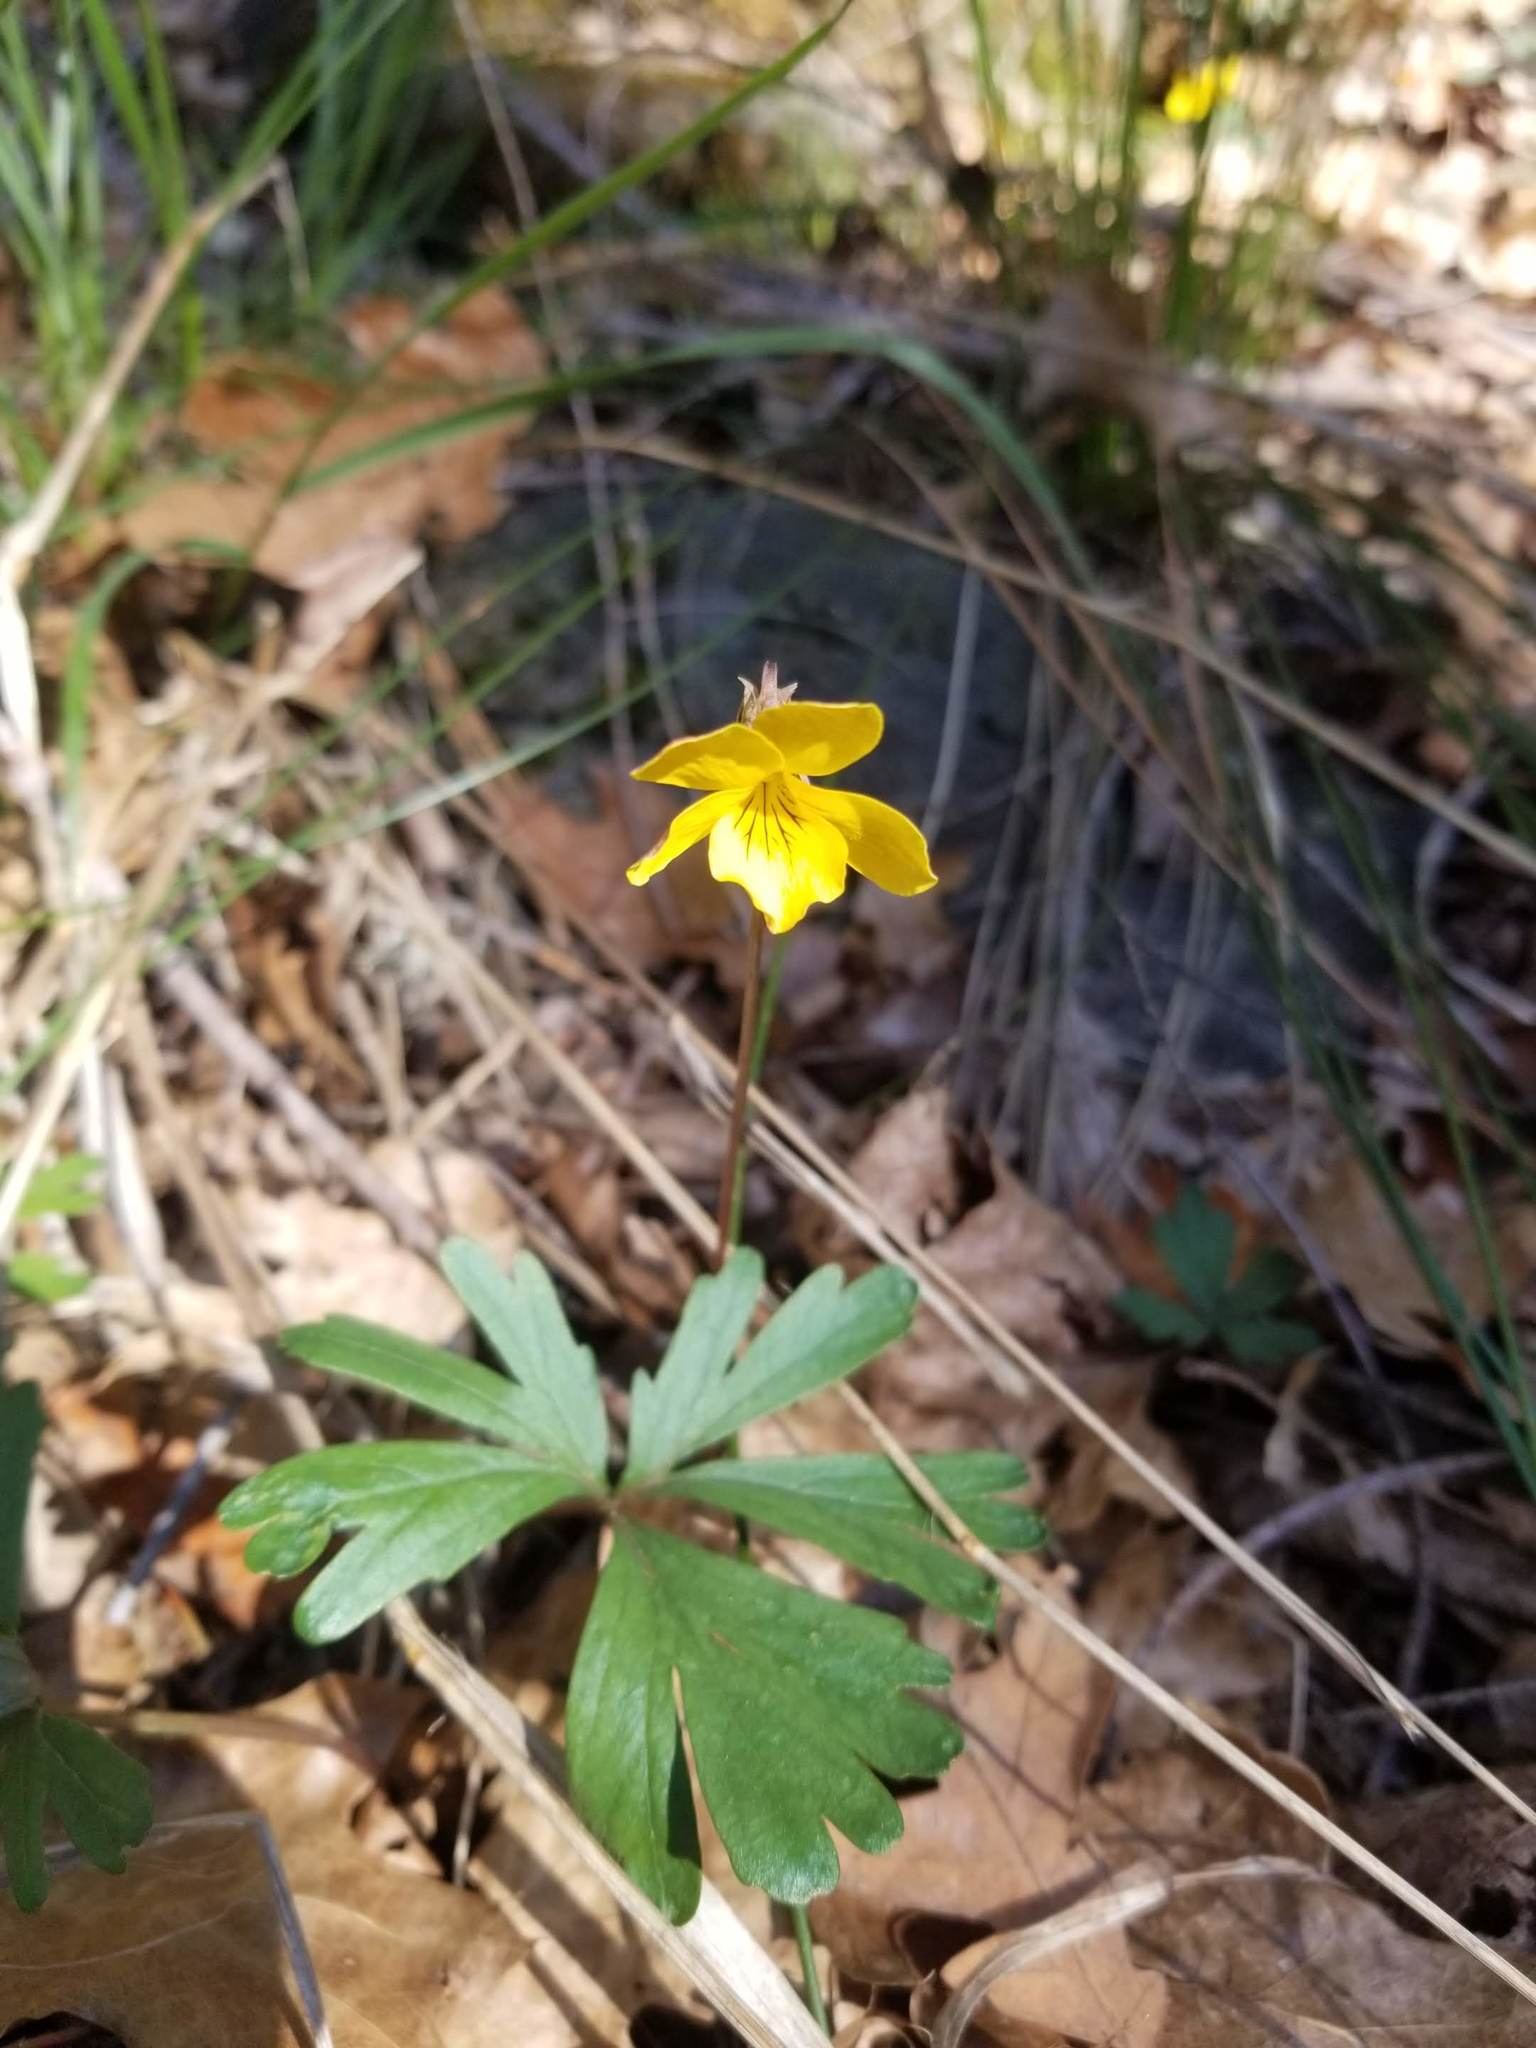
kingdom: Plantae
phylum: Tracheophyta
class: Magnoliopsida
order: Malpighiales
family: Violaceae
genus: Viola
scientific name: Viola sheltonii
